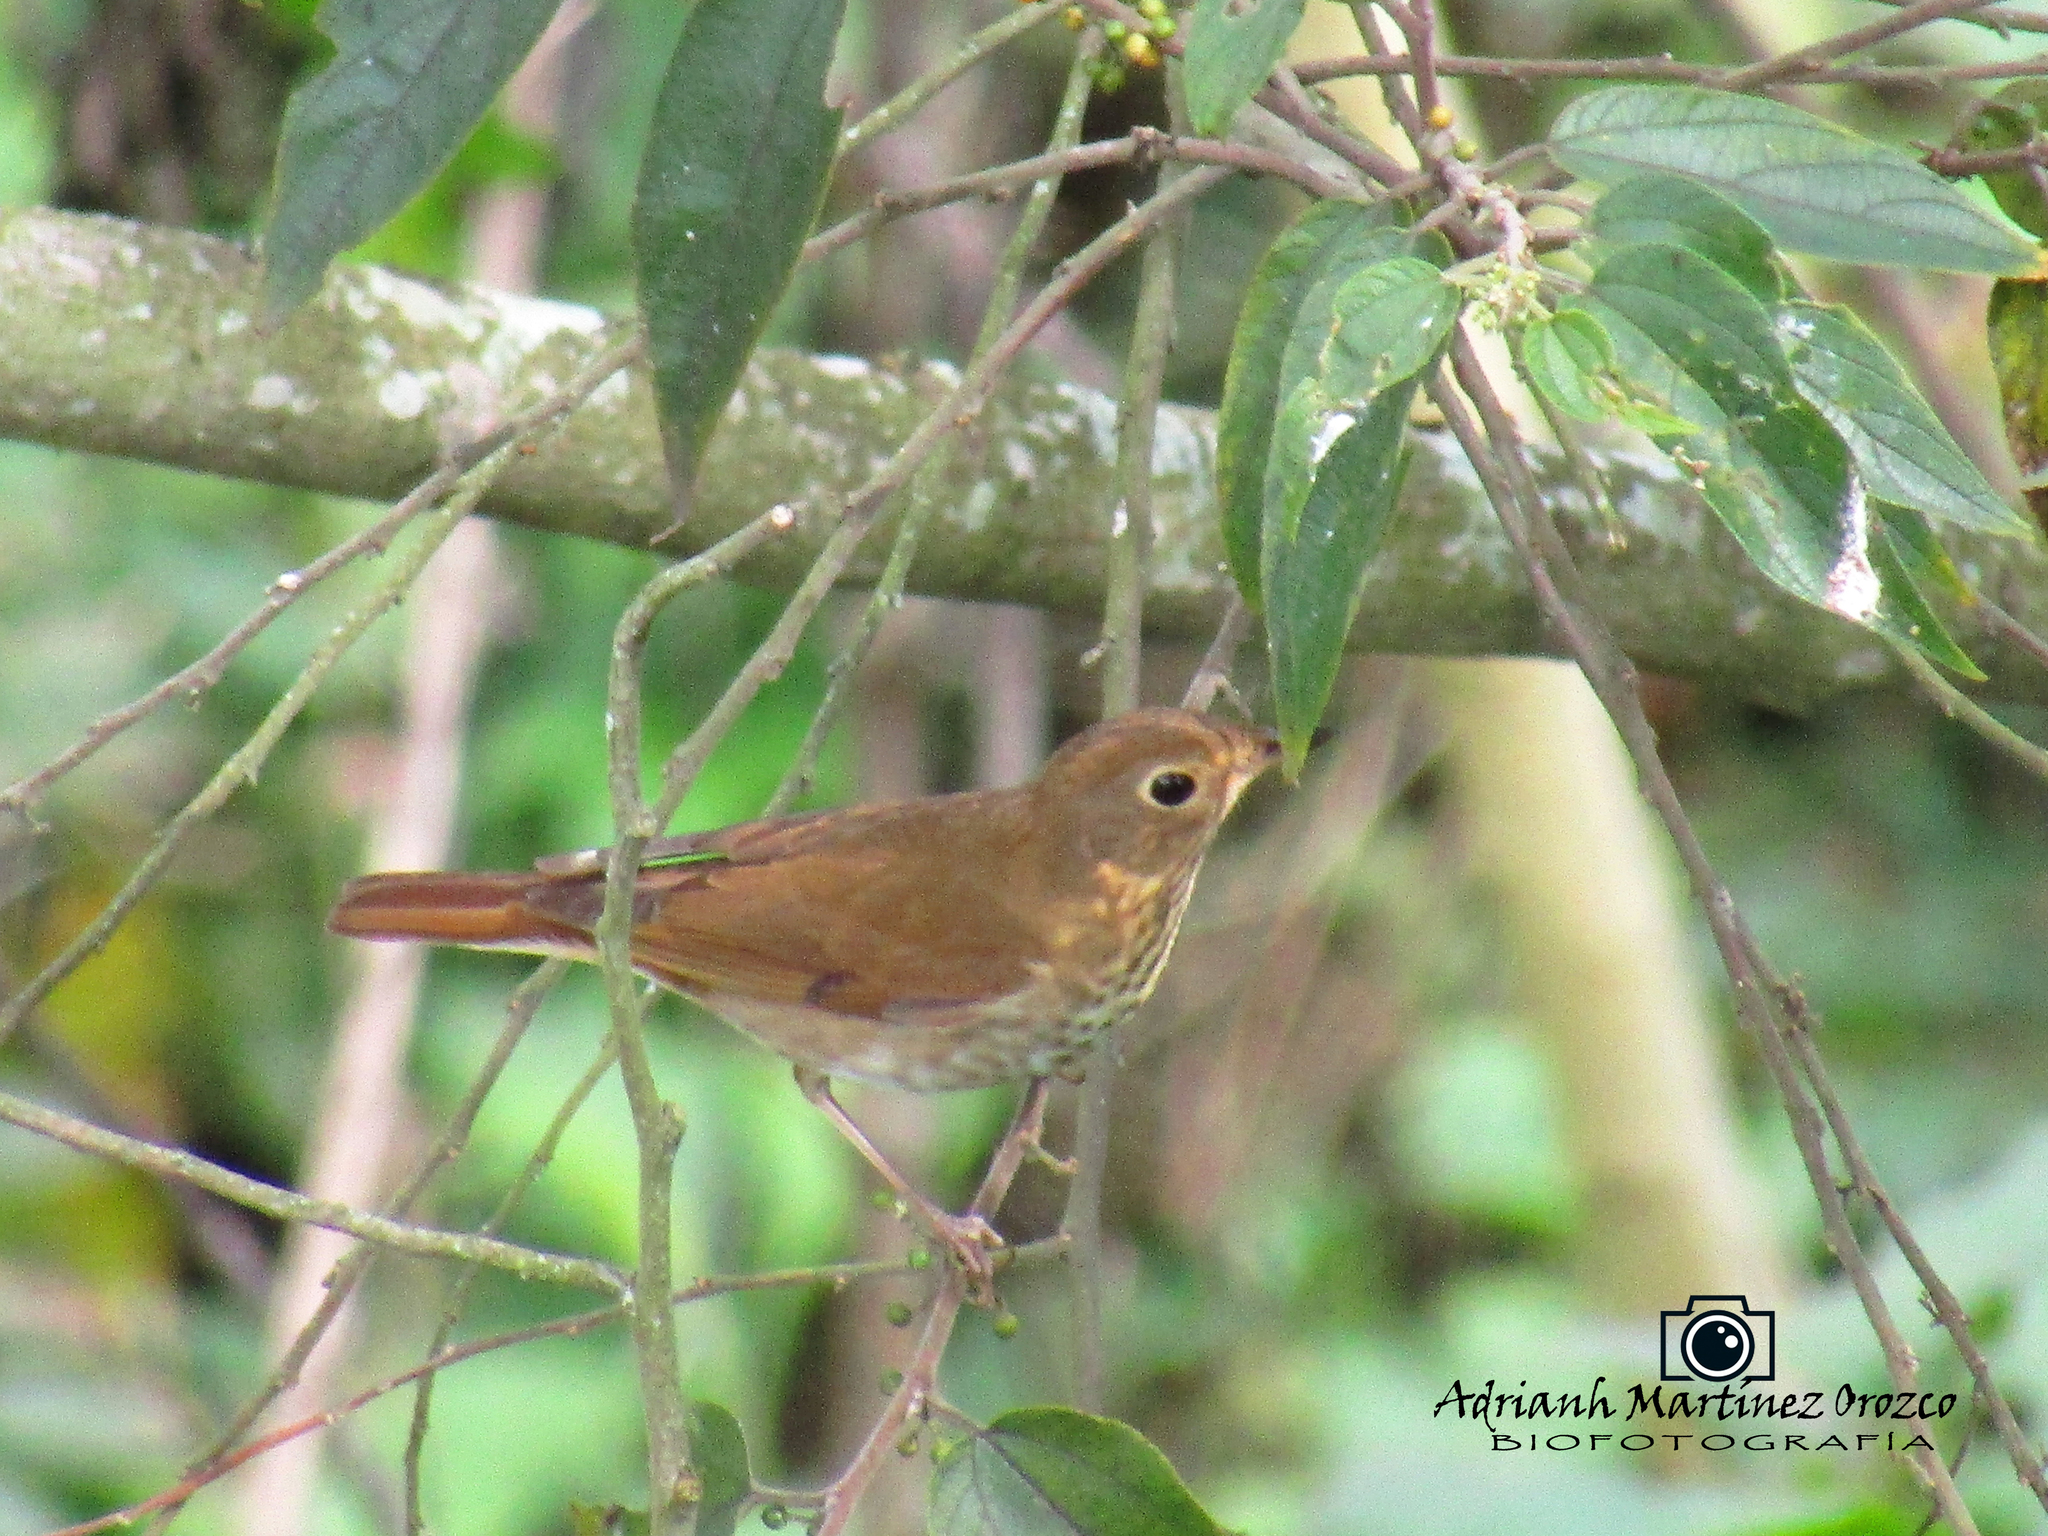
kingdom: Animalia
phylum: Chordata
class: Aves
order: Passeriformes
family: Turdidae
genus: Catharus
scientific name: Catharus ustulatus
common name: Swainson's thrush
